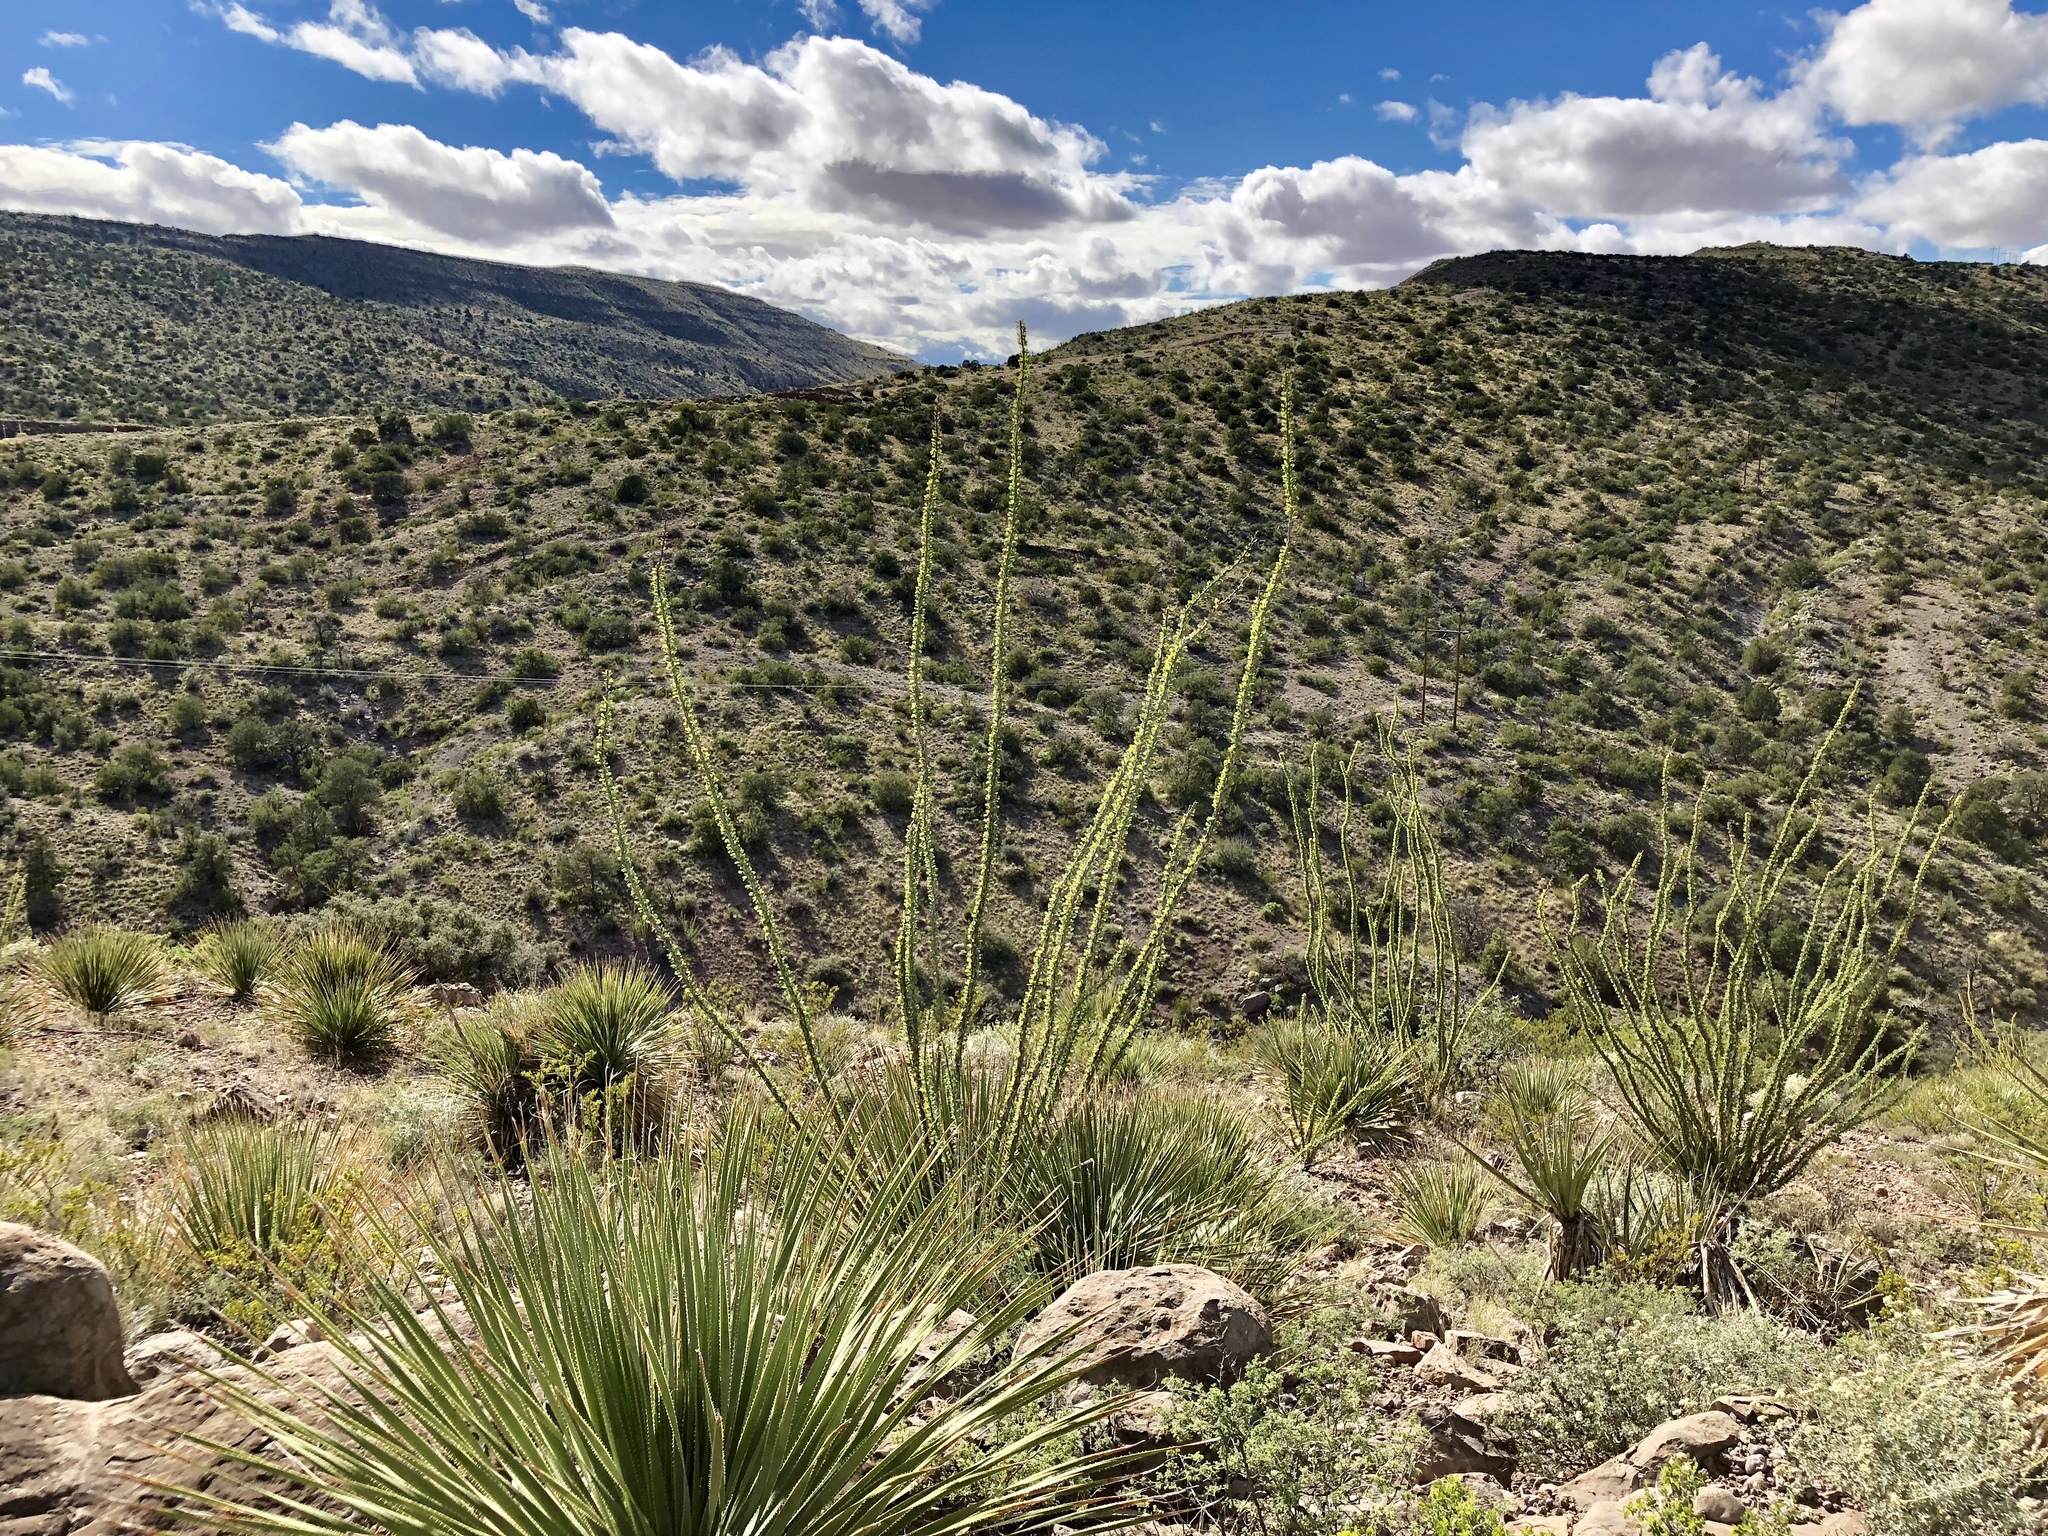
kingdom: Plantae
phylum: Tracheophyta
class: Magnoliopsida
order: Ericales
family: Fouquieriaceae
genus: Fouquieria
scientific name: Fouquieria splendens
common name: Vine-cactus
